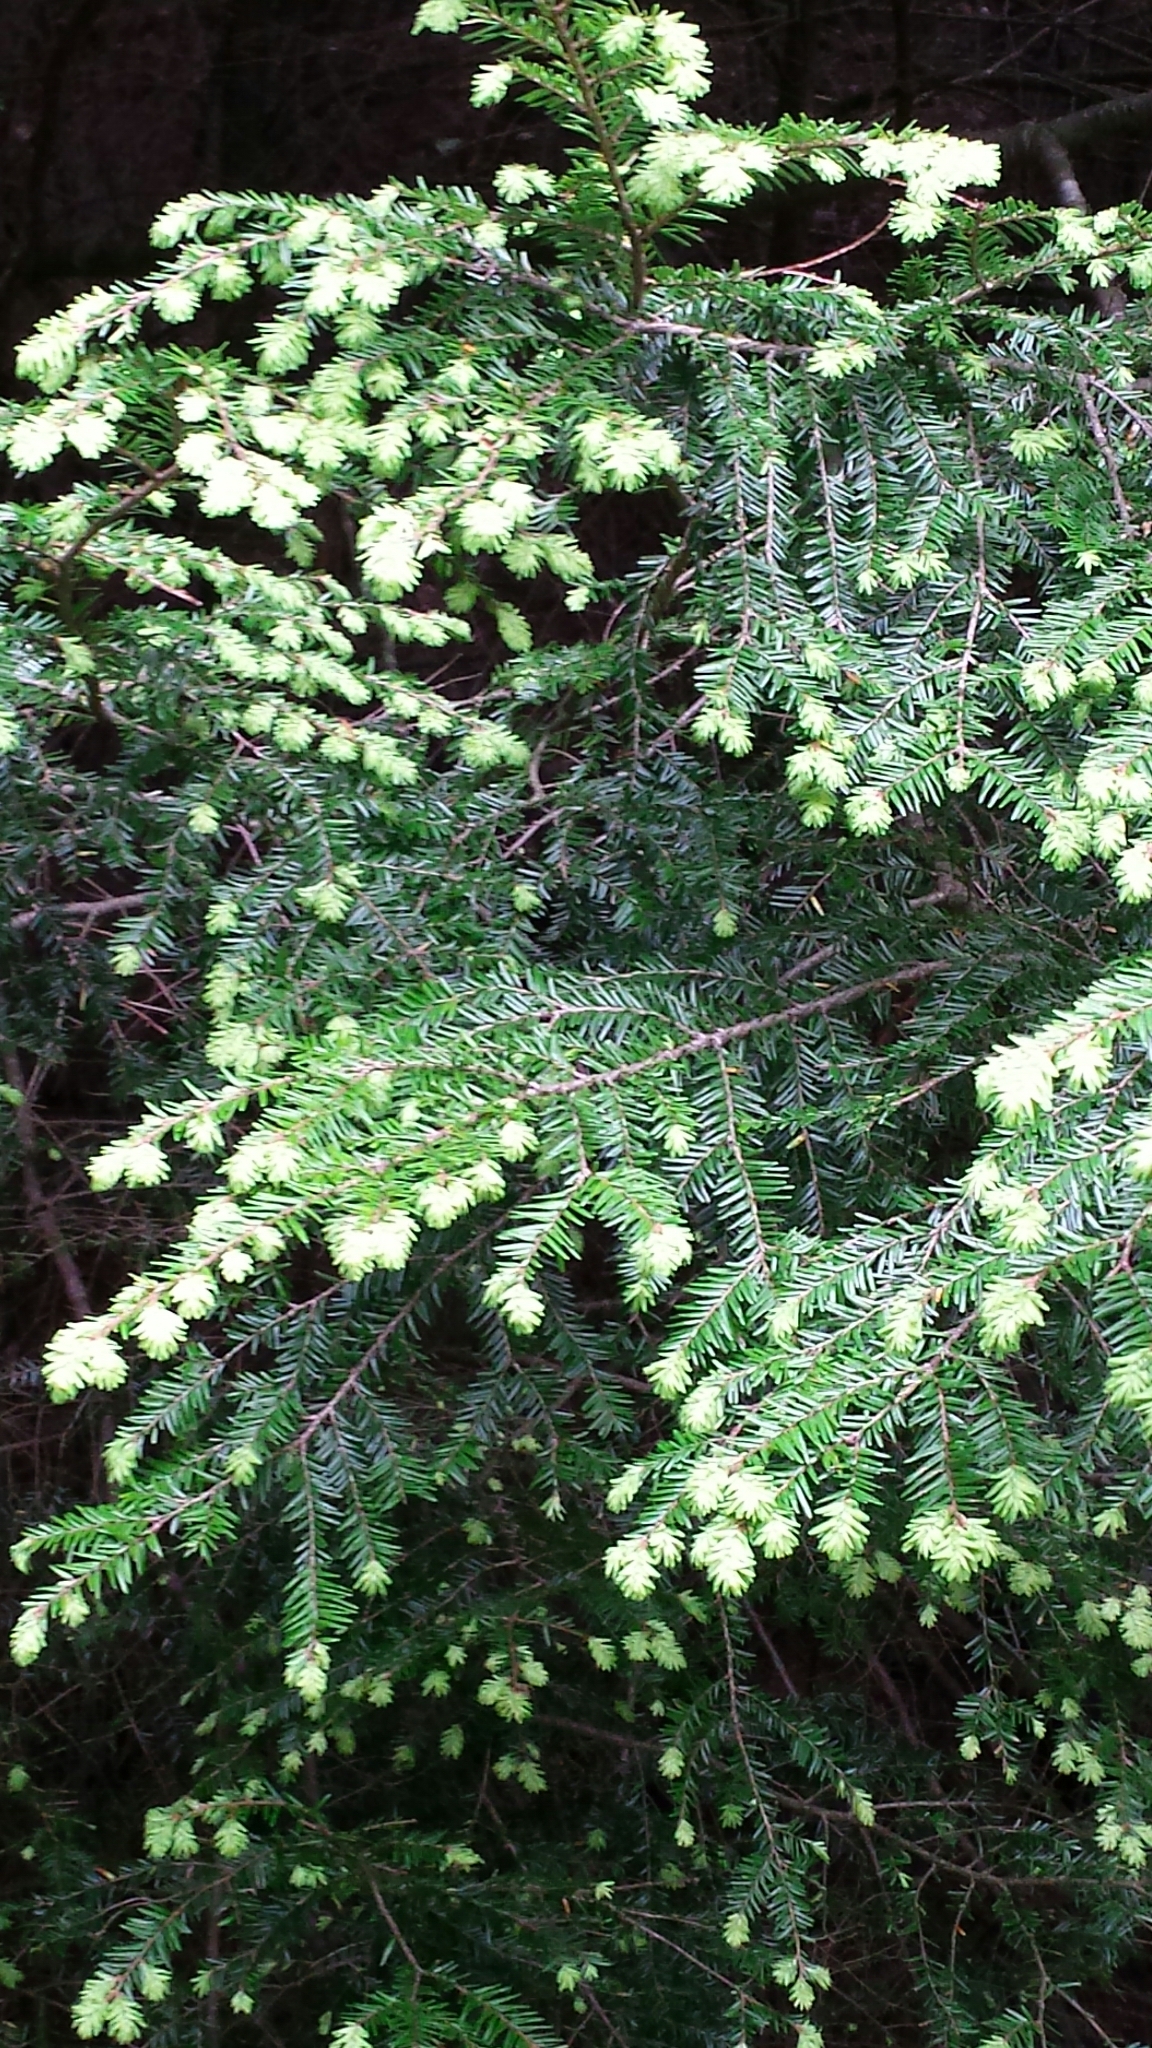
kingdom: Plantae
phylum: Tracheophyta
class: Pinopsida
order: Pinales
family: Pinaceae
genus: Tsuga
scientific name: Tsuga canadensis
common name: Eastern hemlock
